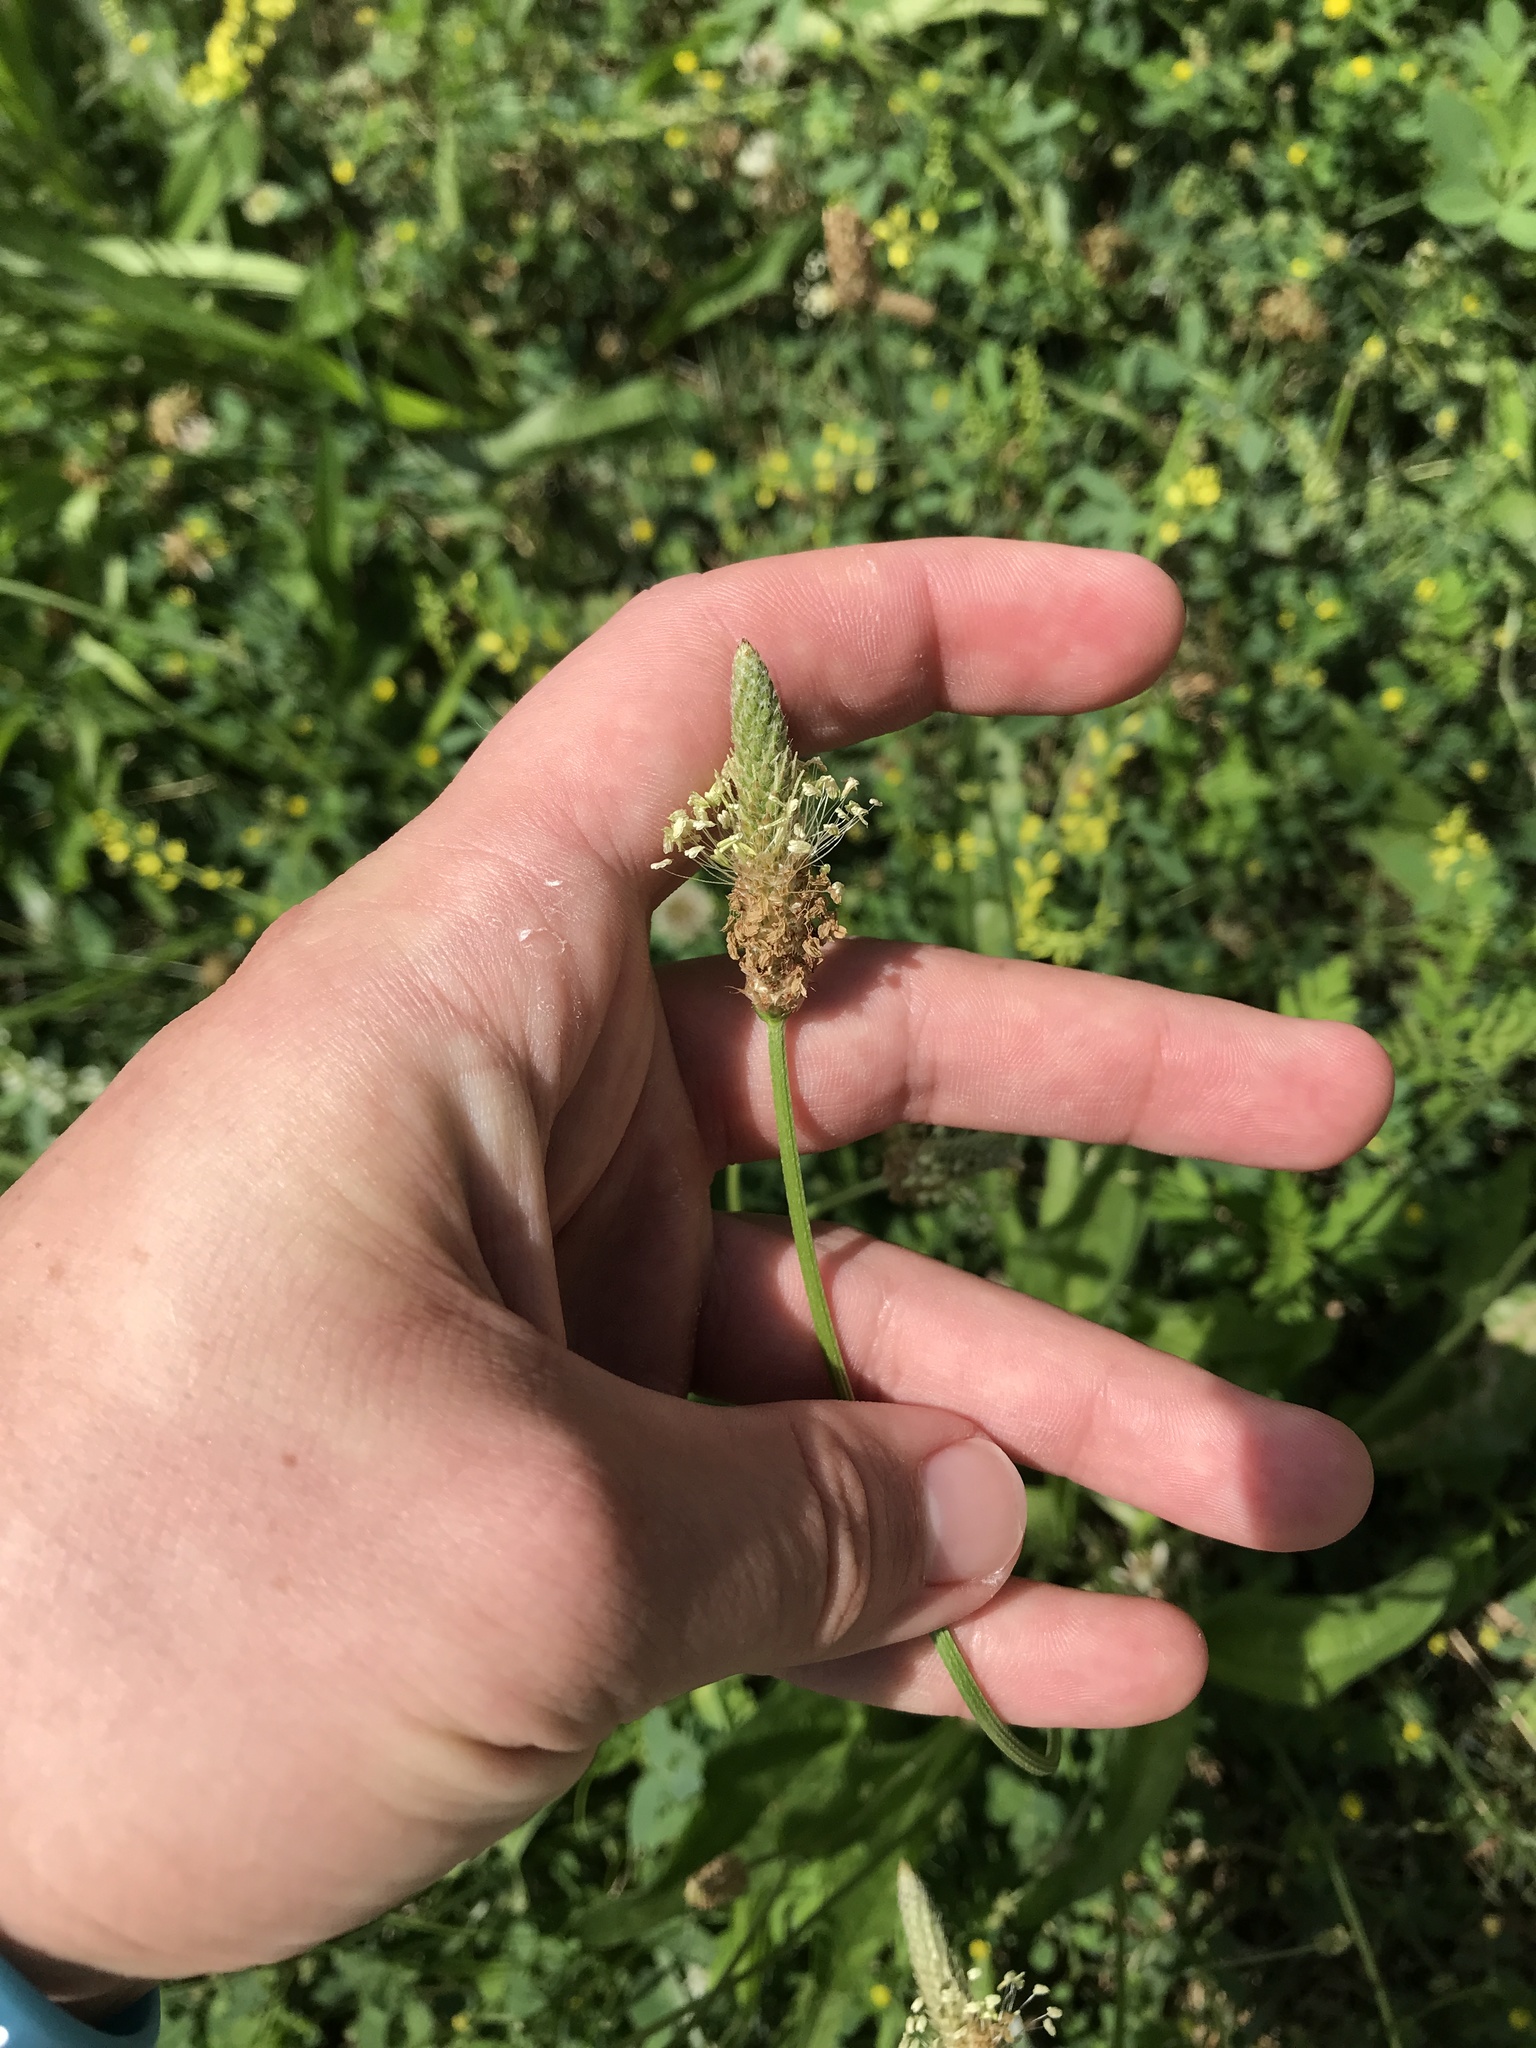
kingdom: Plantae
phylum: Tracheophyta
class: Magnoliopsida
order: Lamiales
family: Plantaginaceae
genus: Plantago
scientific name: Plantago lanceolata
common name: Ribwort plantain
